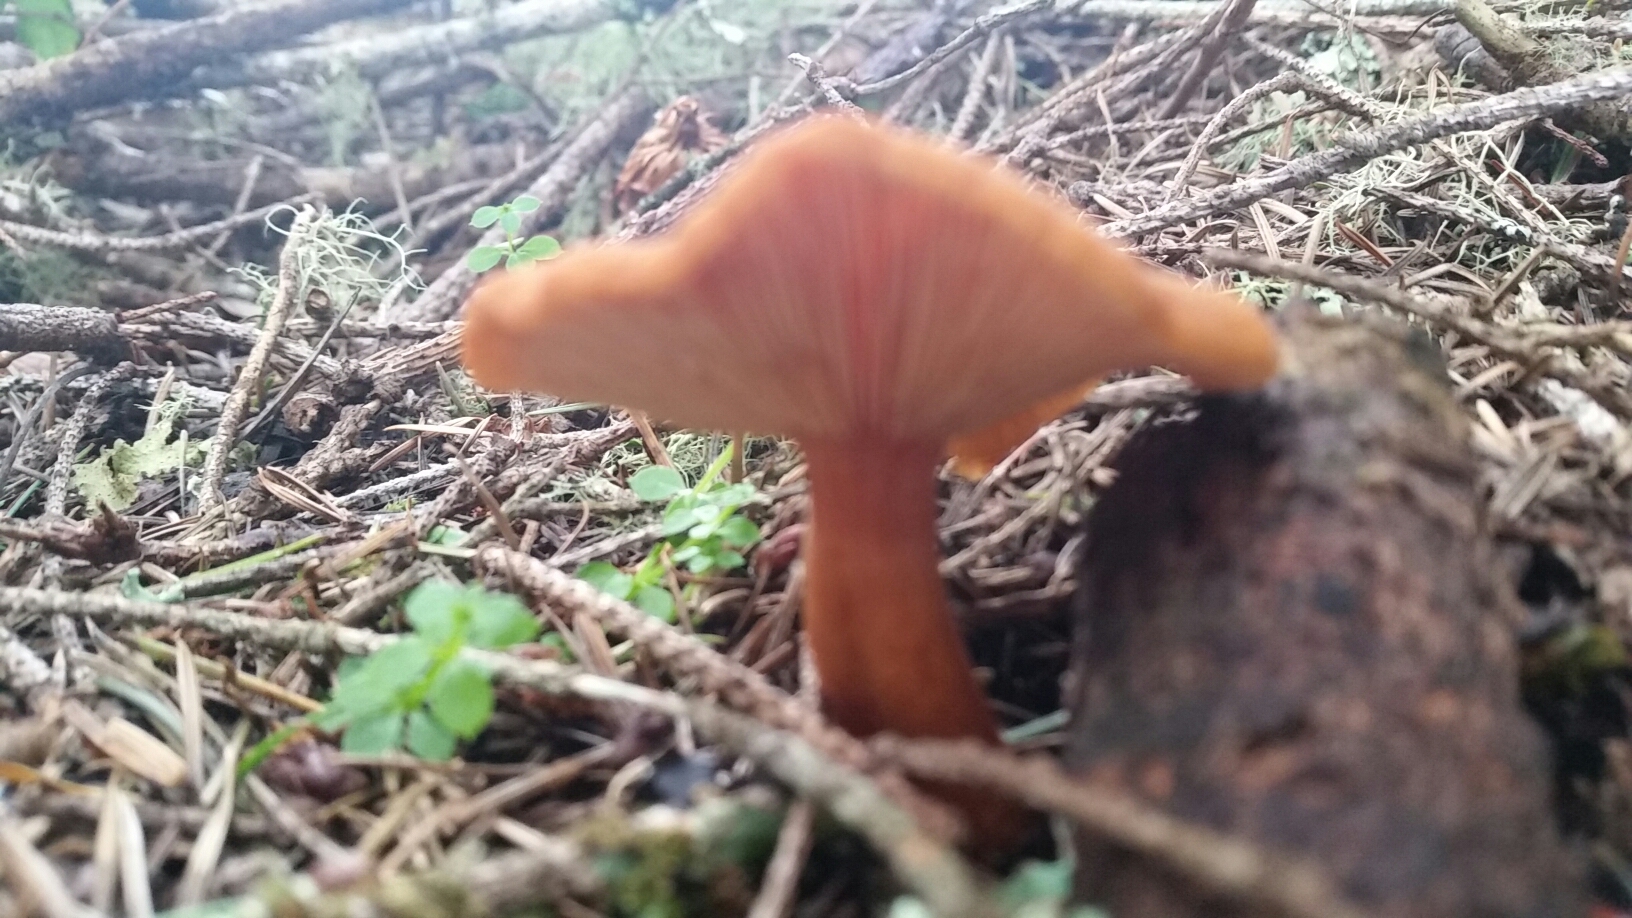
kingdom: Fungi
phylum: Basidiomycota
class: Agaricomycetes
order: Russulales
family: Russulaceae
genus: Lactarius
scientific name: Lactarius rubidus
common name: Candy cap
